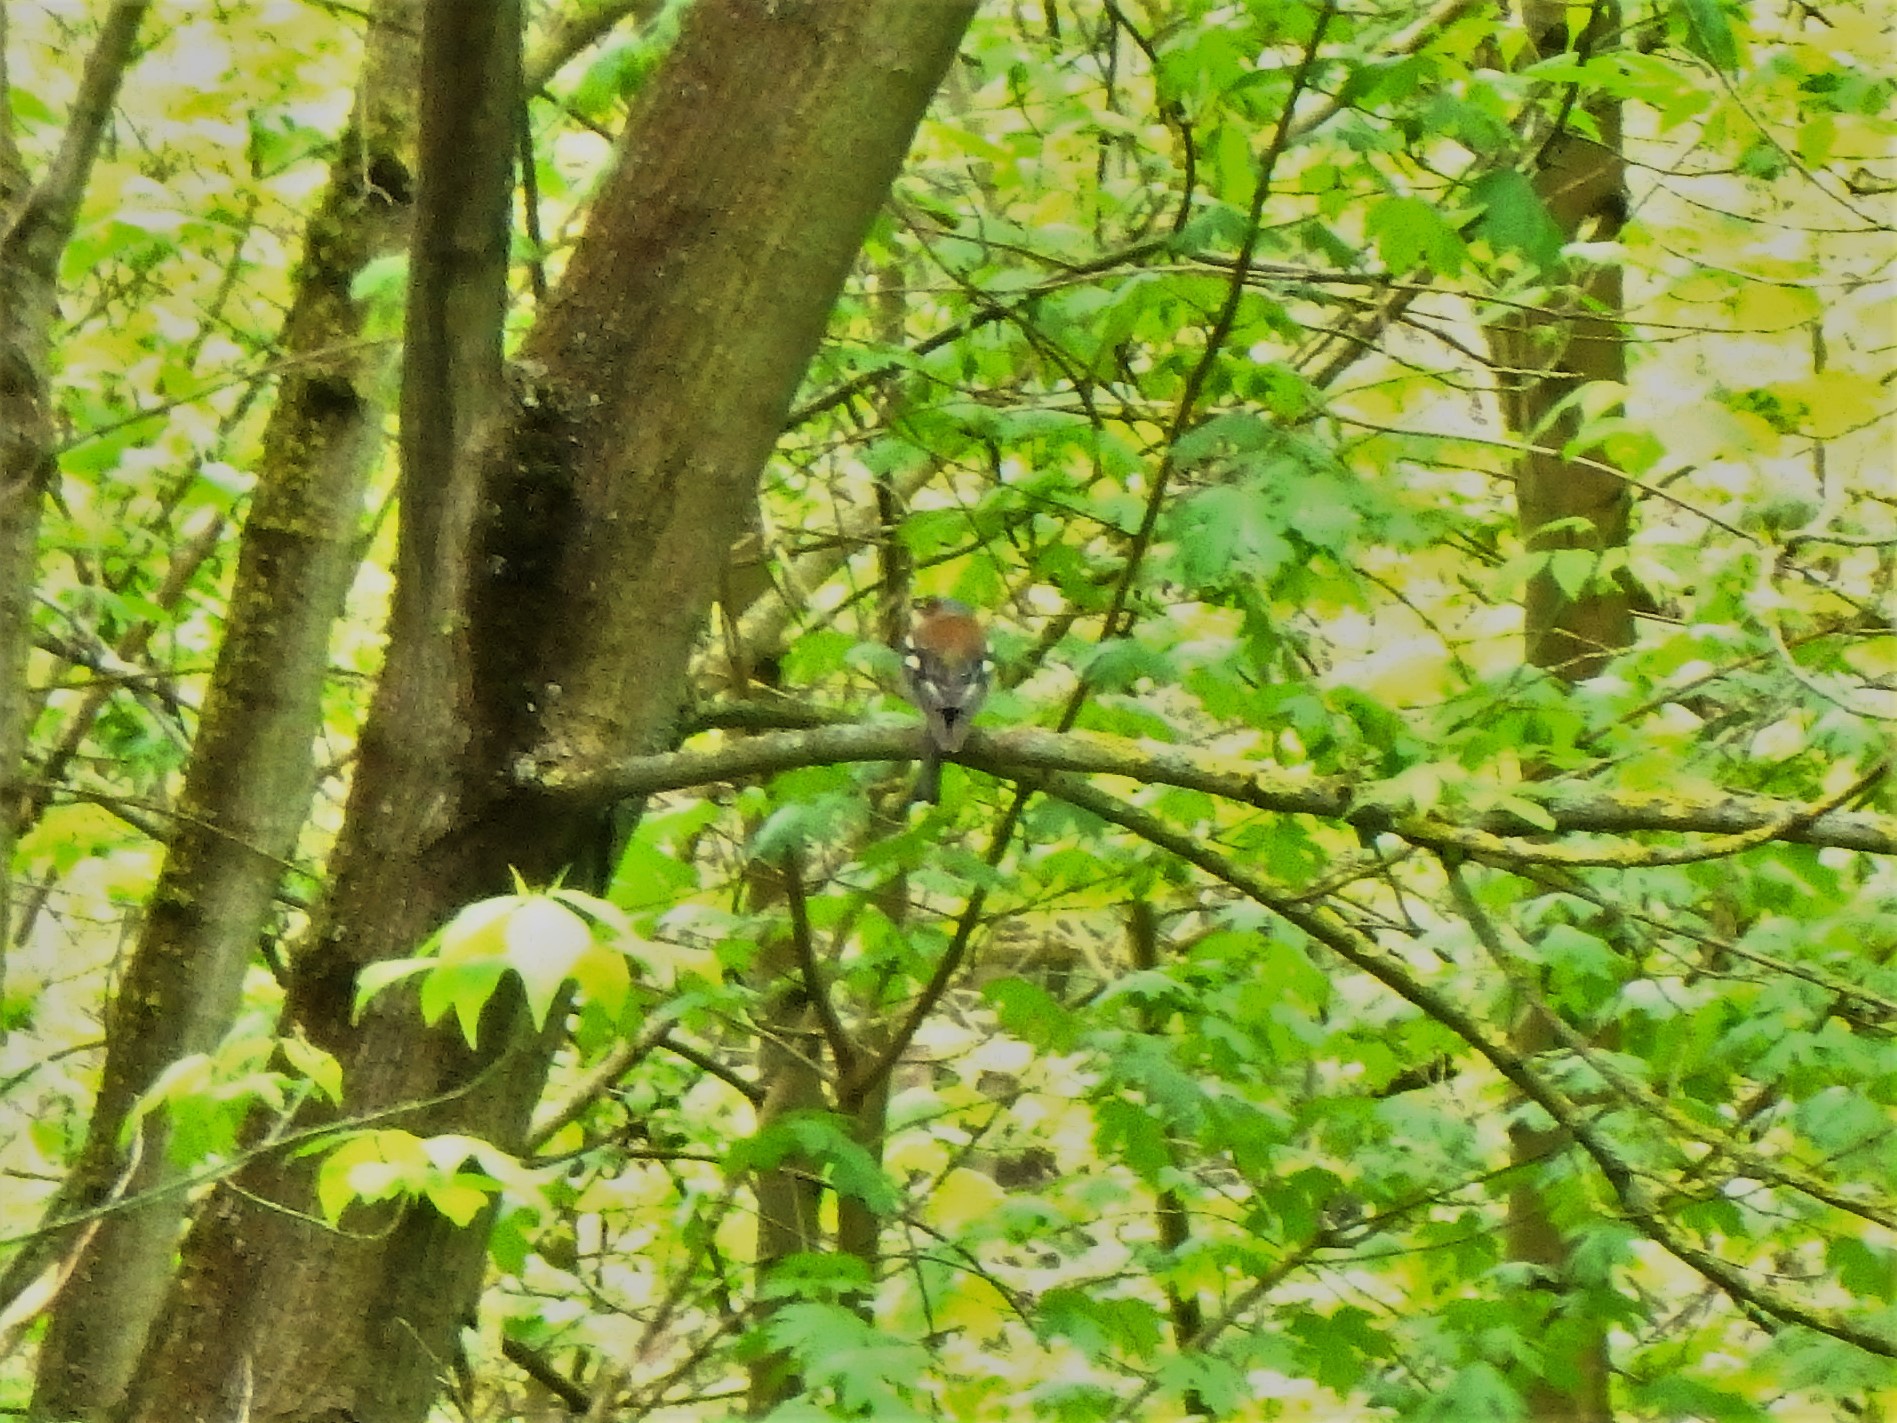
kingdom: Animalia
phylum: Chordata
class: Aves
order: Passeriformes
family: Fringillidae
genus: Fringilla
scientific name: Fringilla coelebs
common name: Common chaffinch
